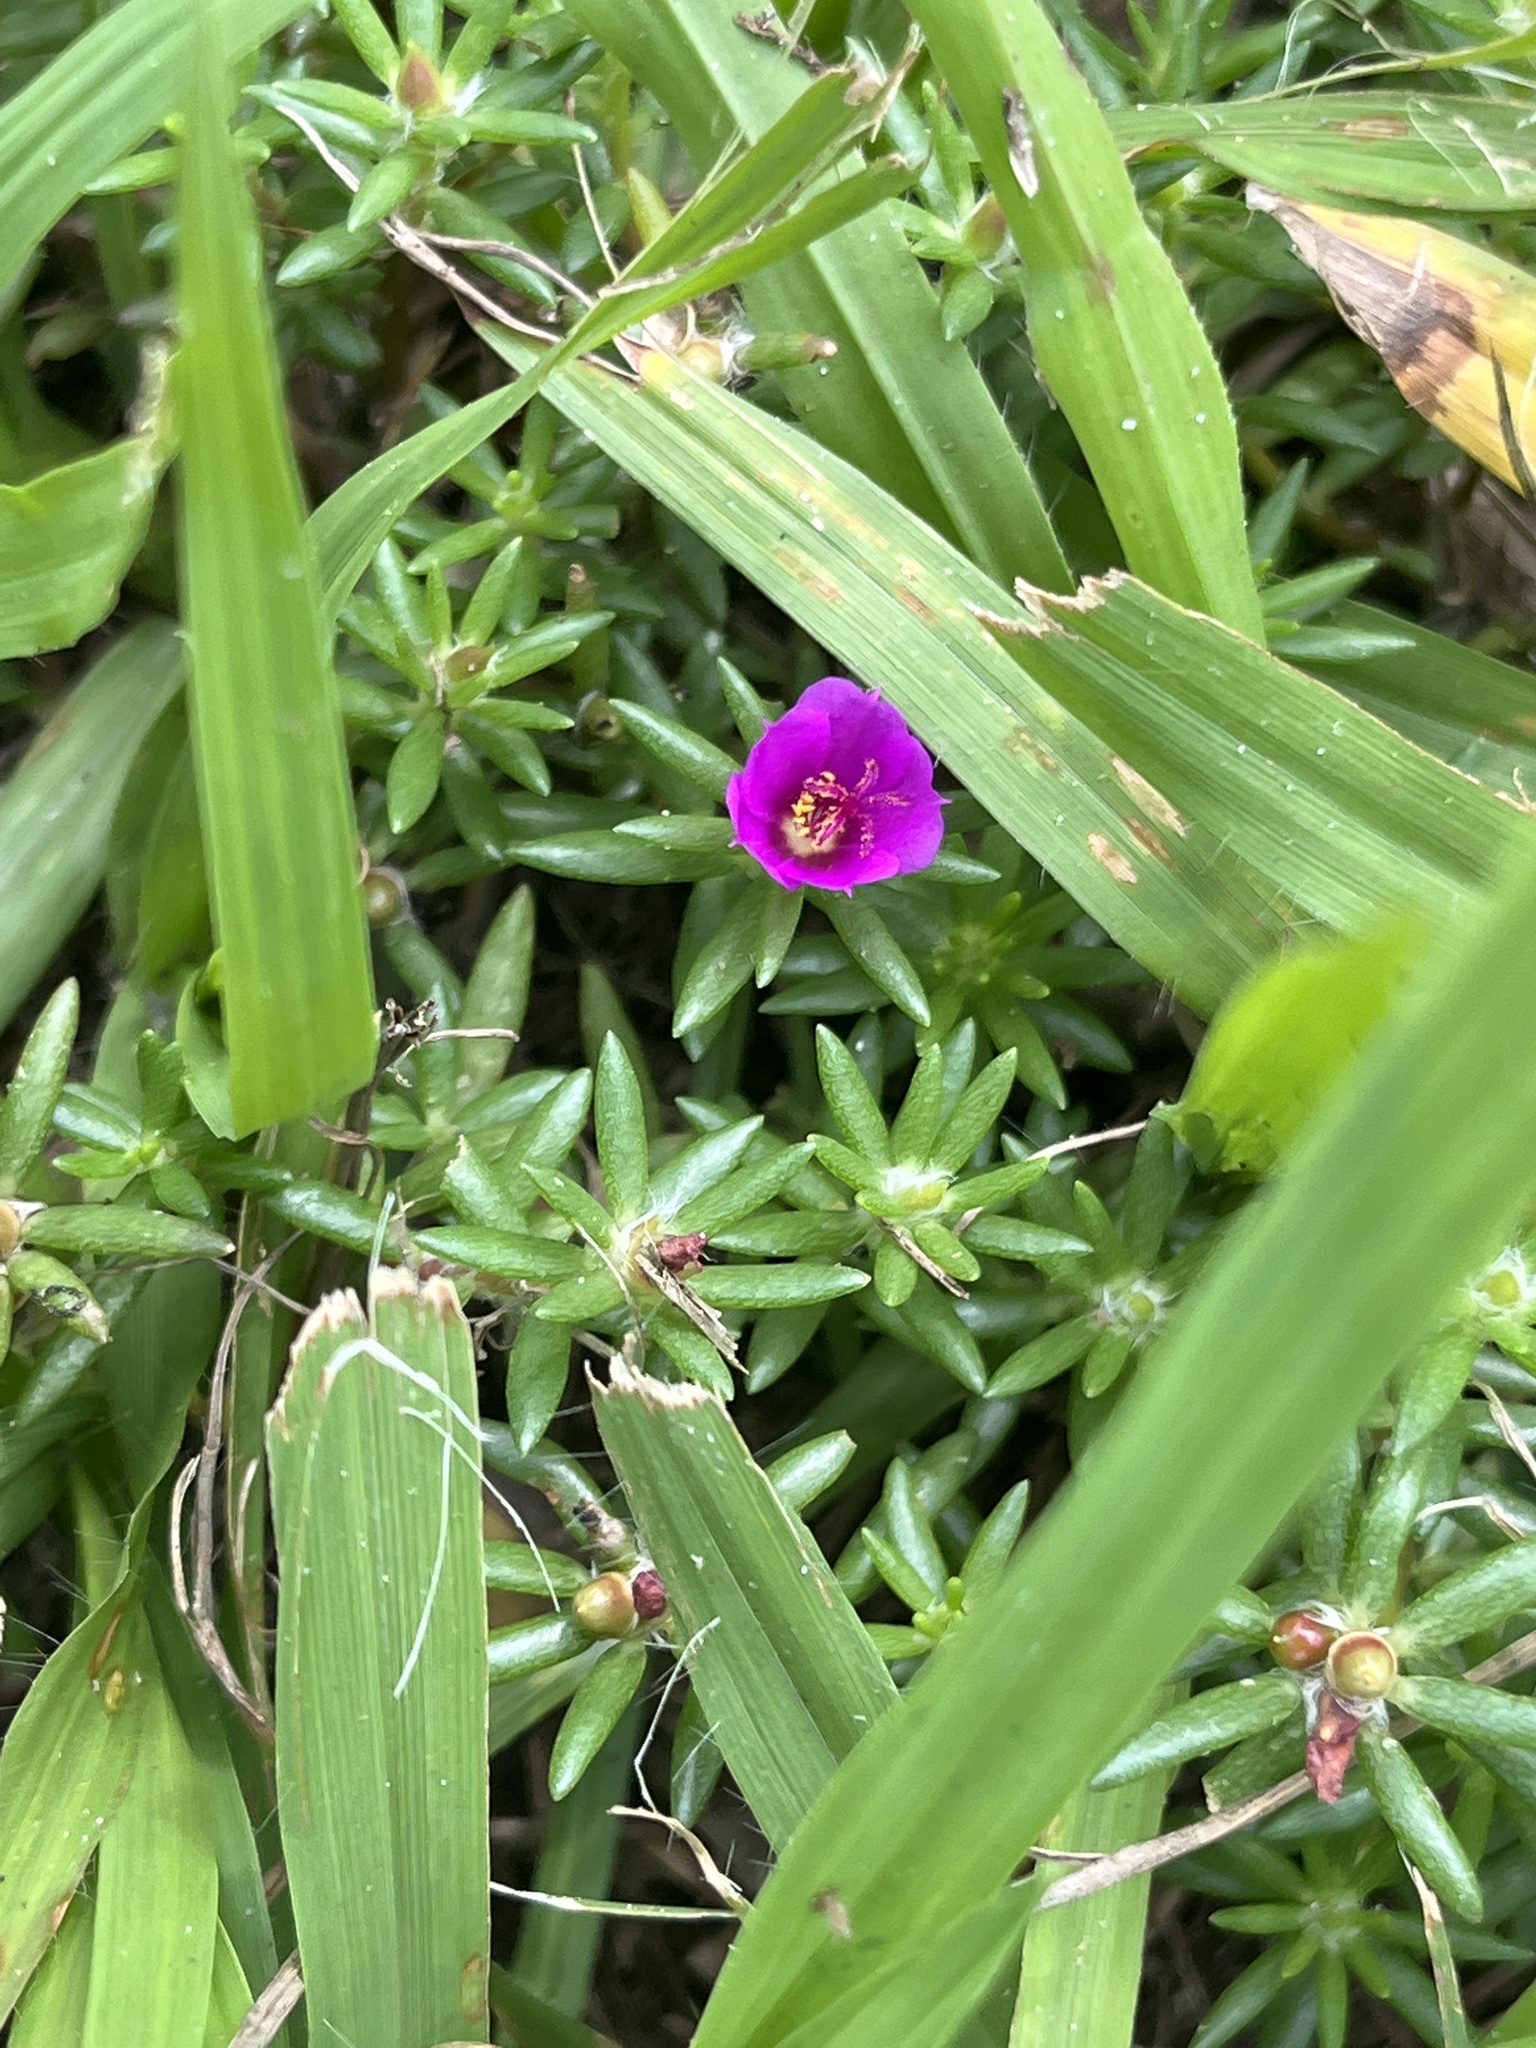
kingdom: Plantae
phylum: Tracheophyta
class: Magnoliopsida
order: Caryophyllales
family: Portulacaceae
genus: Portulaca
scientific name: Portulaca pilosa
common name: Kiss me quick
